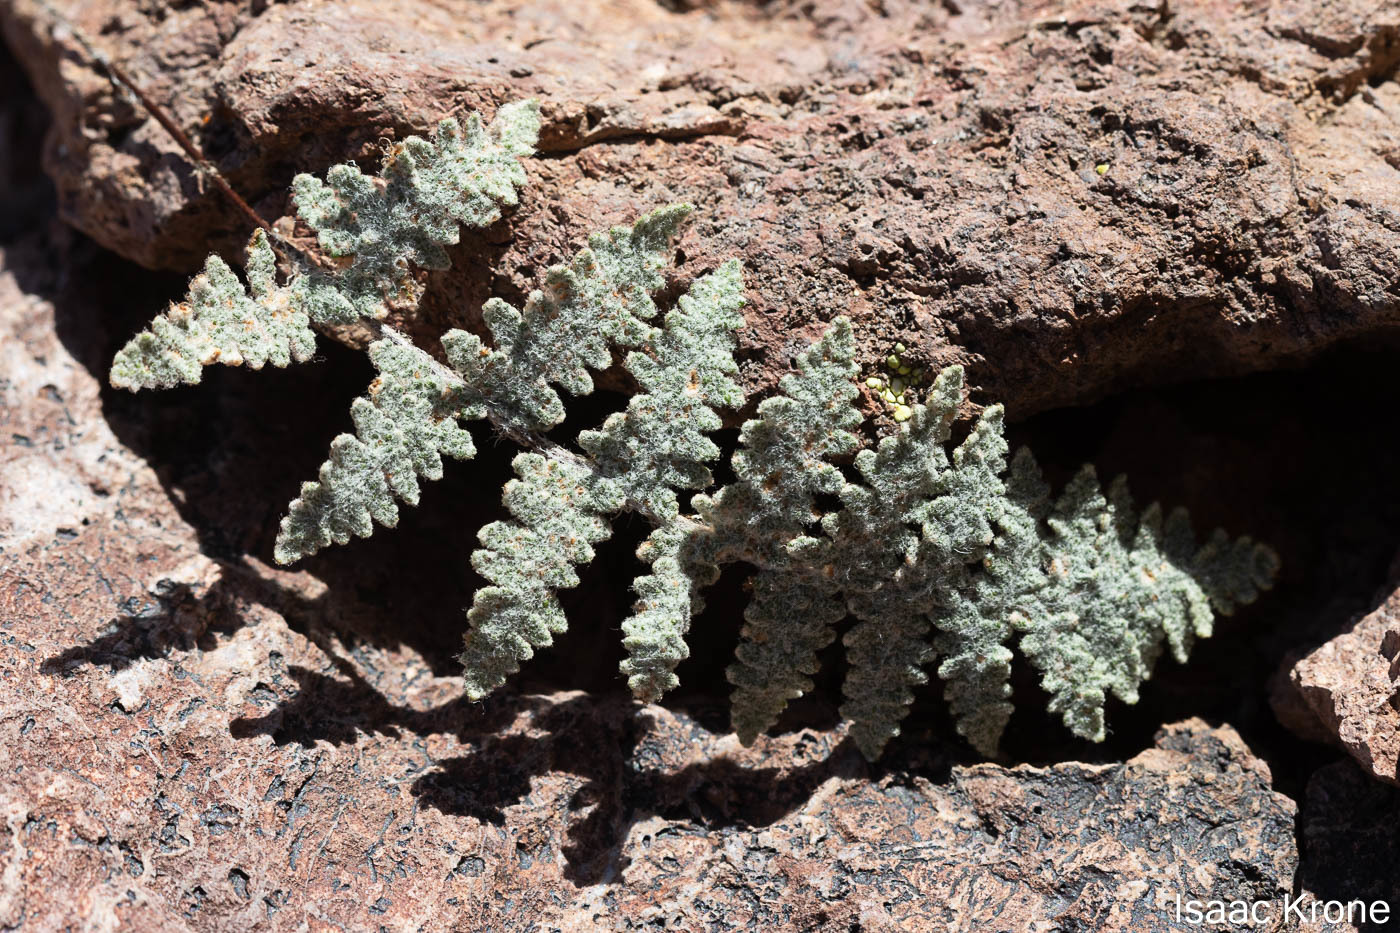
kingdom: Plantae
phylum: Tracheophyta
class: Polypodiopsida
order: Polypodiales
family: Pteridaceae
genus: Myriopteris
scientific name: Myriopteris lindheimeri
